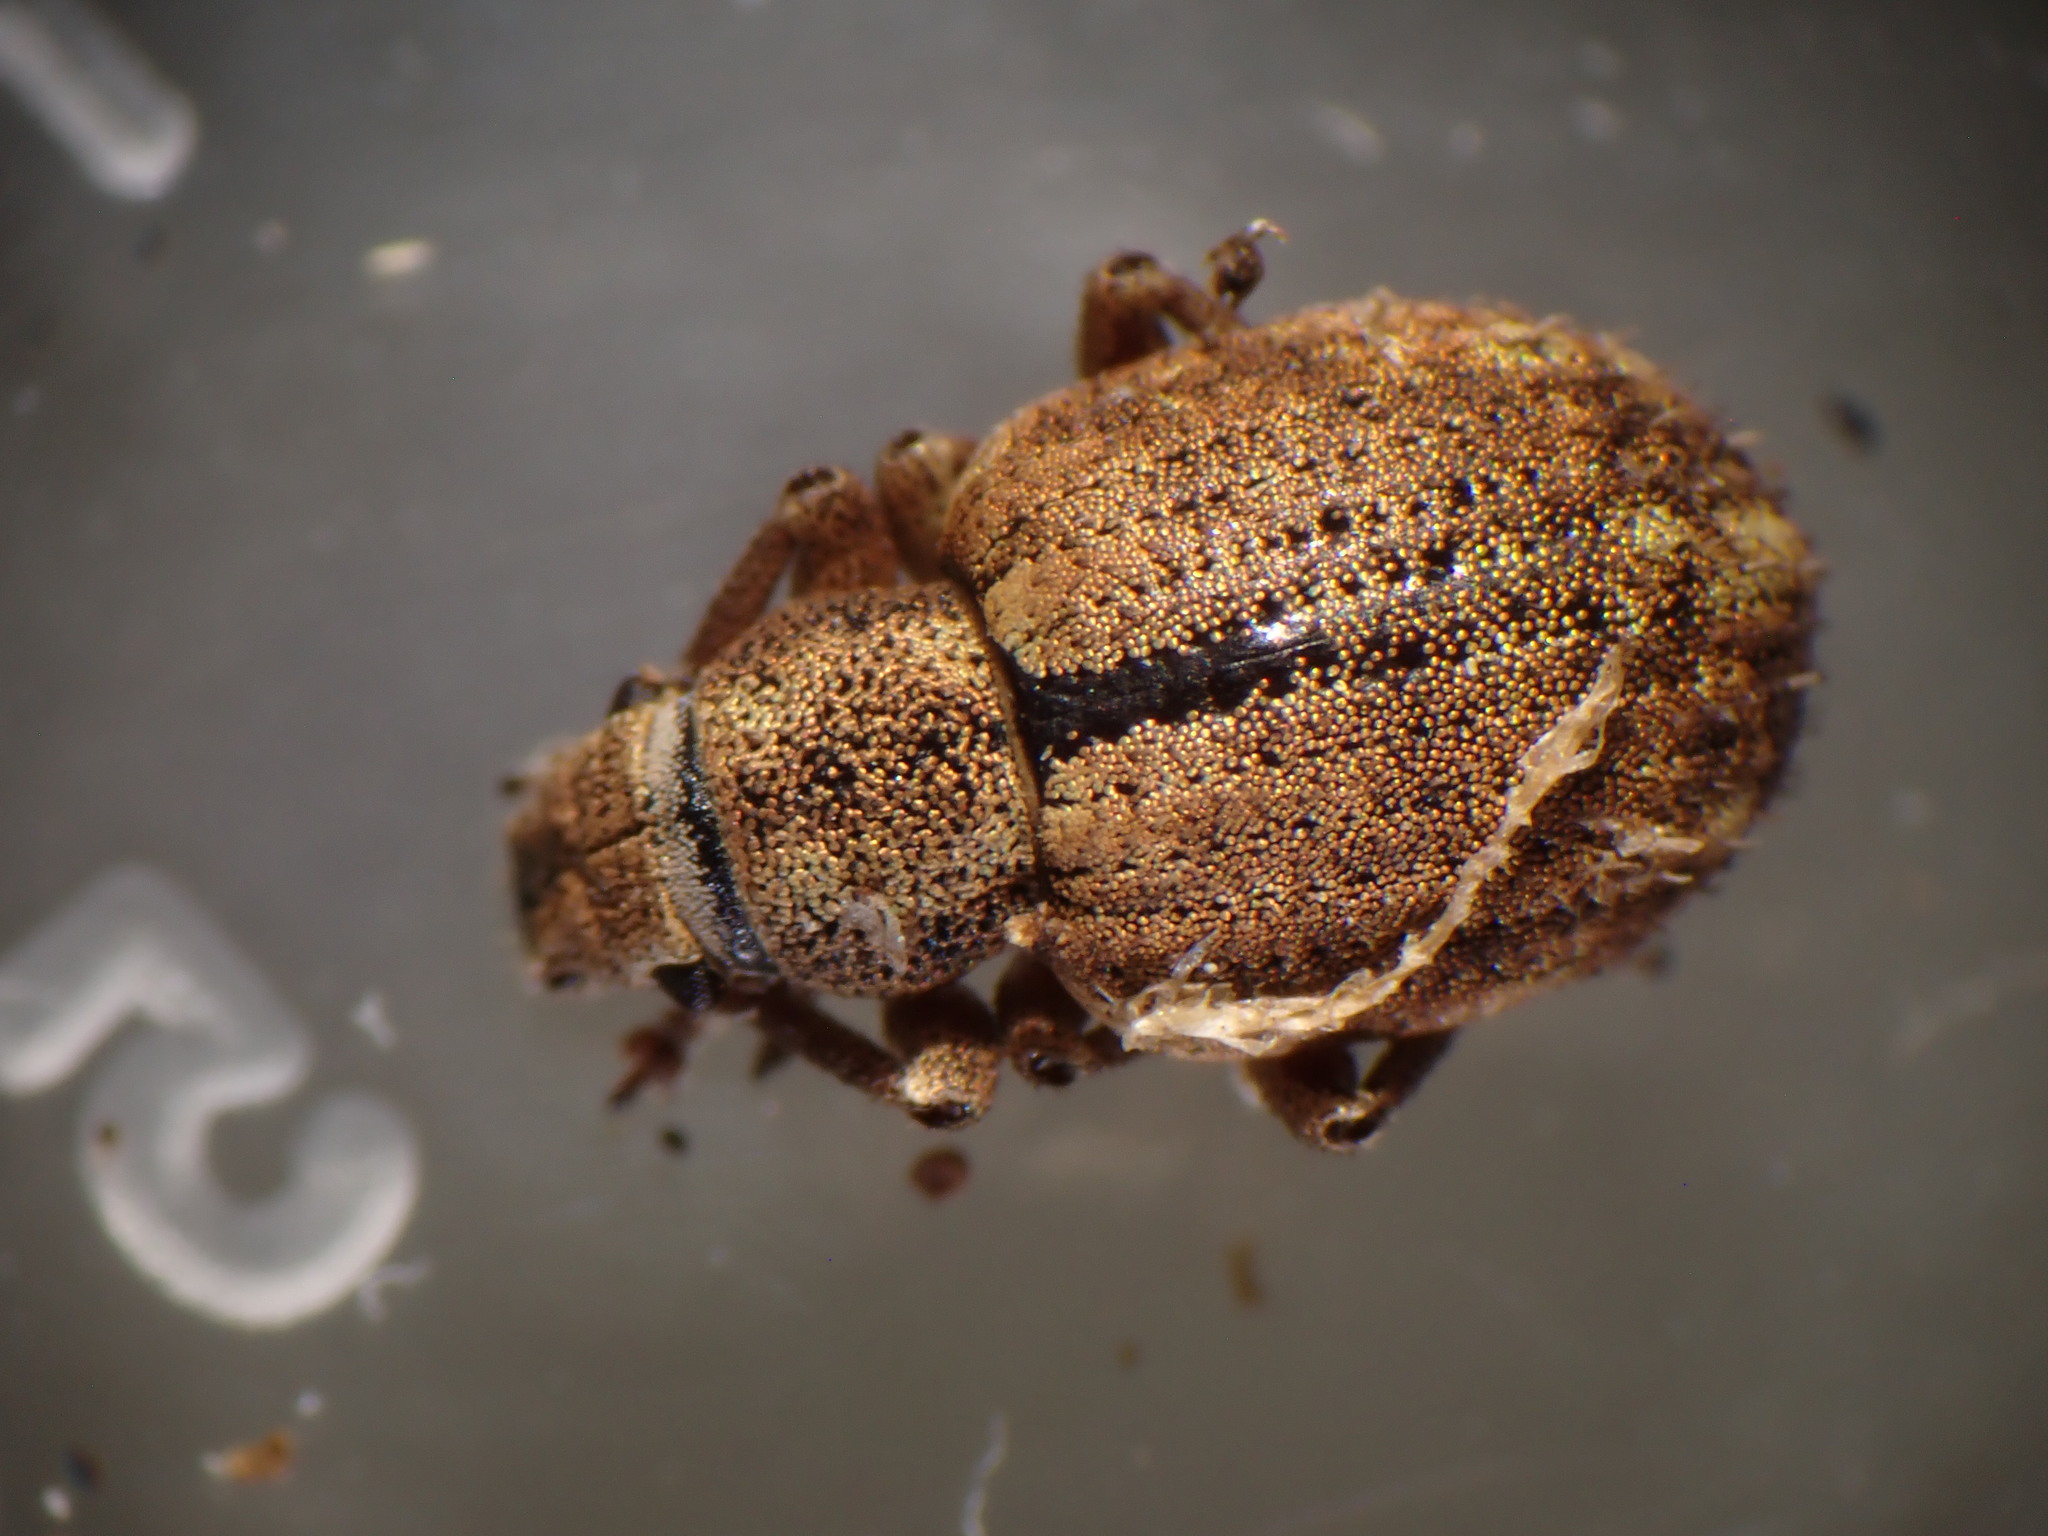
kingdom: Animalia
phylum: Arthropoda
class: Insecta
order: Coleoptera
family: Curculionidae
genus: Strophosoma
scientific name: Strophosoma melanogrammum
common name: Weevil
